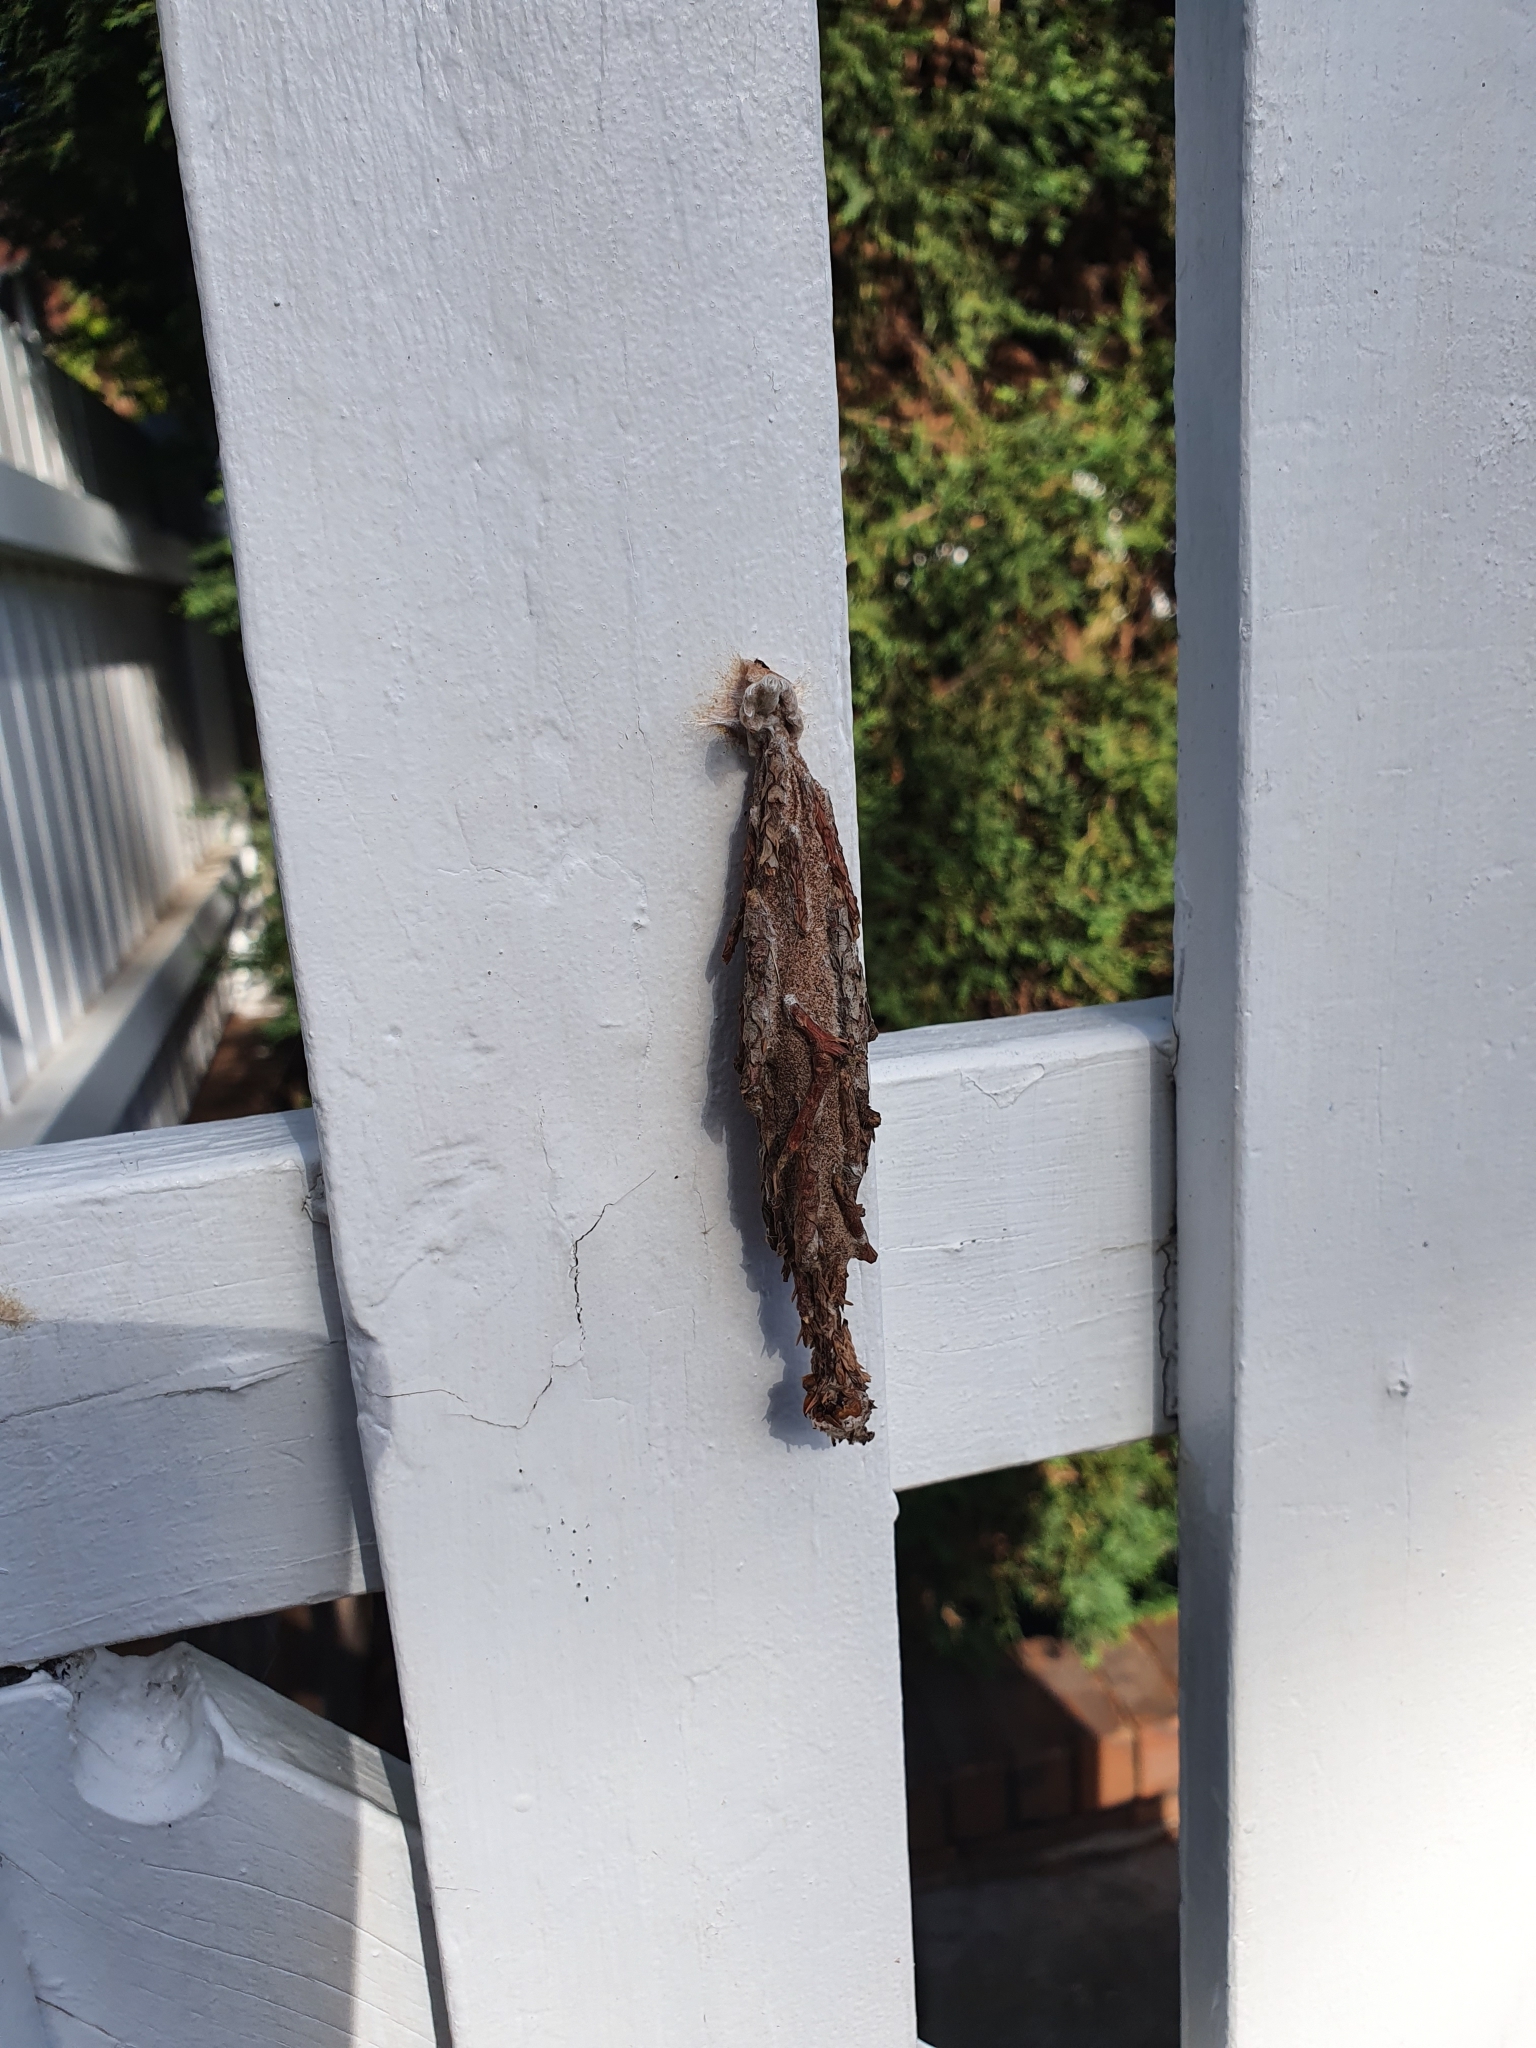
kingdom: Animalia
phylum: Arthropoda
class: Insecta
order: Lepidoptera
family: Psychidae
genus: Metura
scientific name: Metura elongatus
